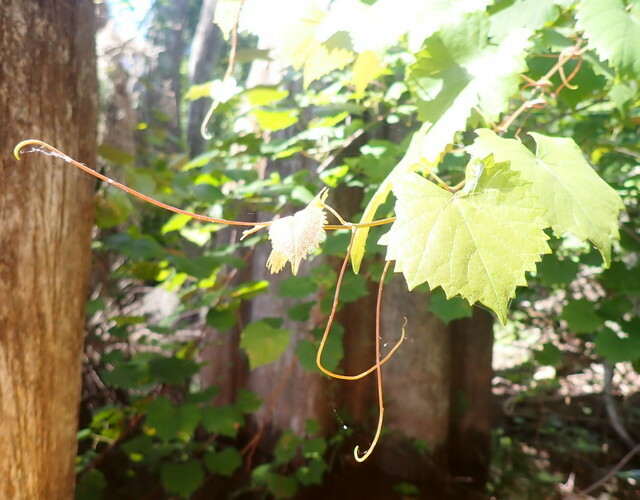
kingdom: Plantae
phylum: Tracheophyta
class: Magnoliopsida
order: Vitales
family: Vitaceae
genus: Vitis
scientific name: Vitis rotundifolia
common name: Muscadine grape
